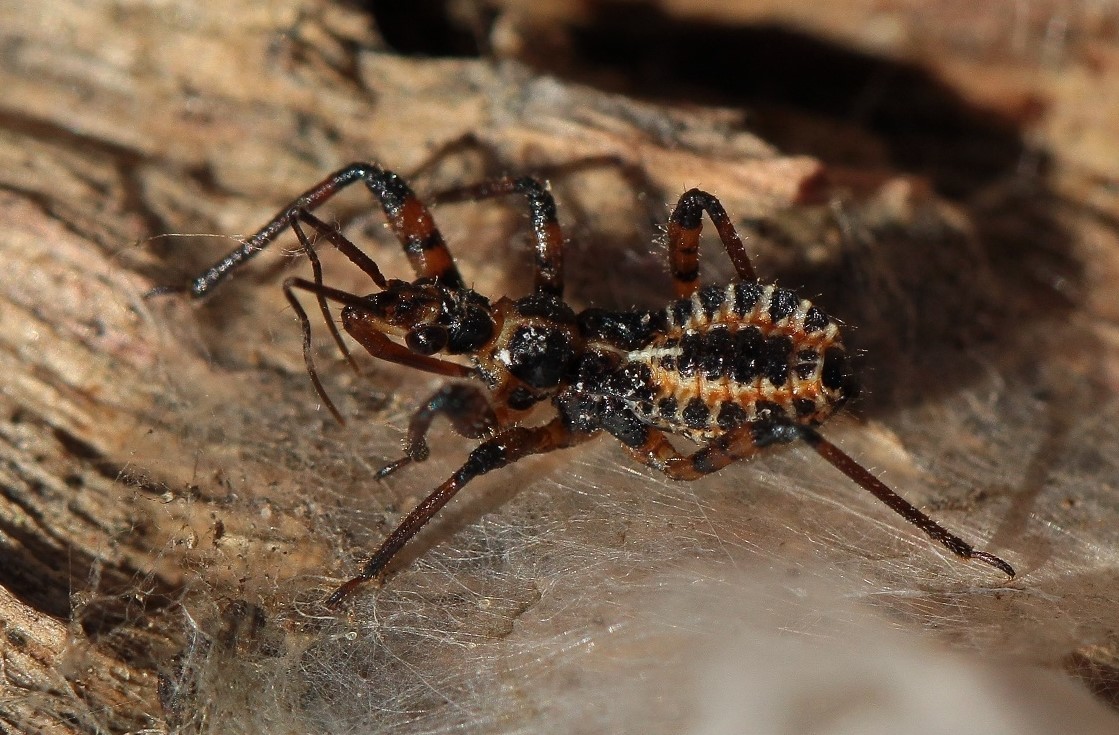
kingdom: Animalia
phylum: Arthropoda
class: Insecta
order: Hemiptera
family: Reduviidae
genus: Rhynocoris
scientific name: Rhynocoris iracundus
